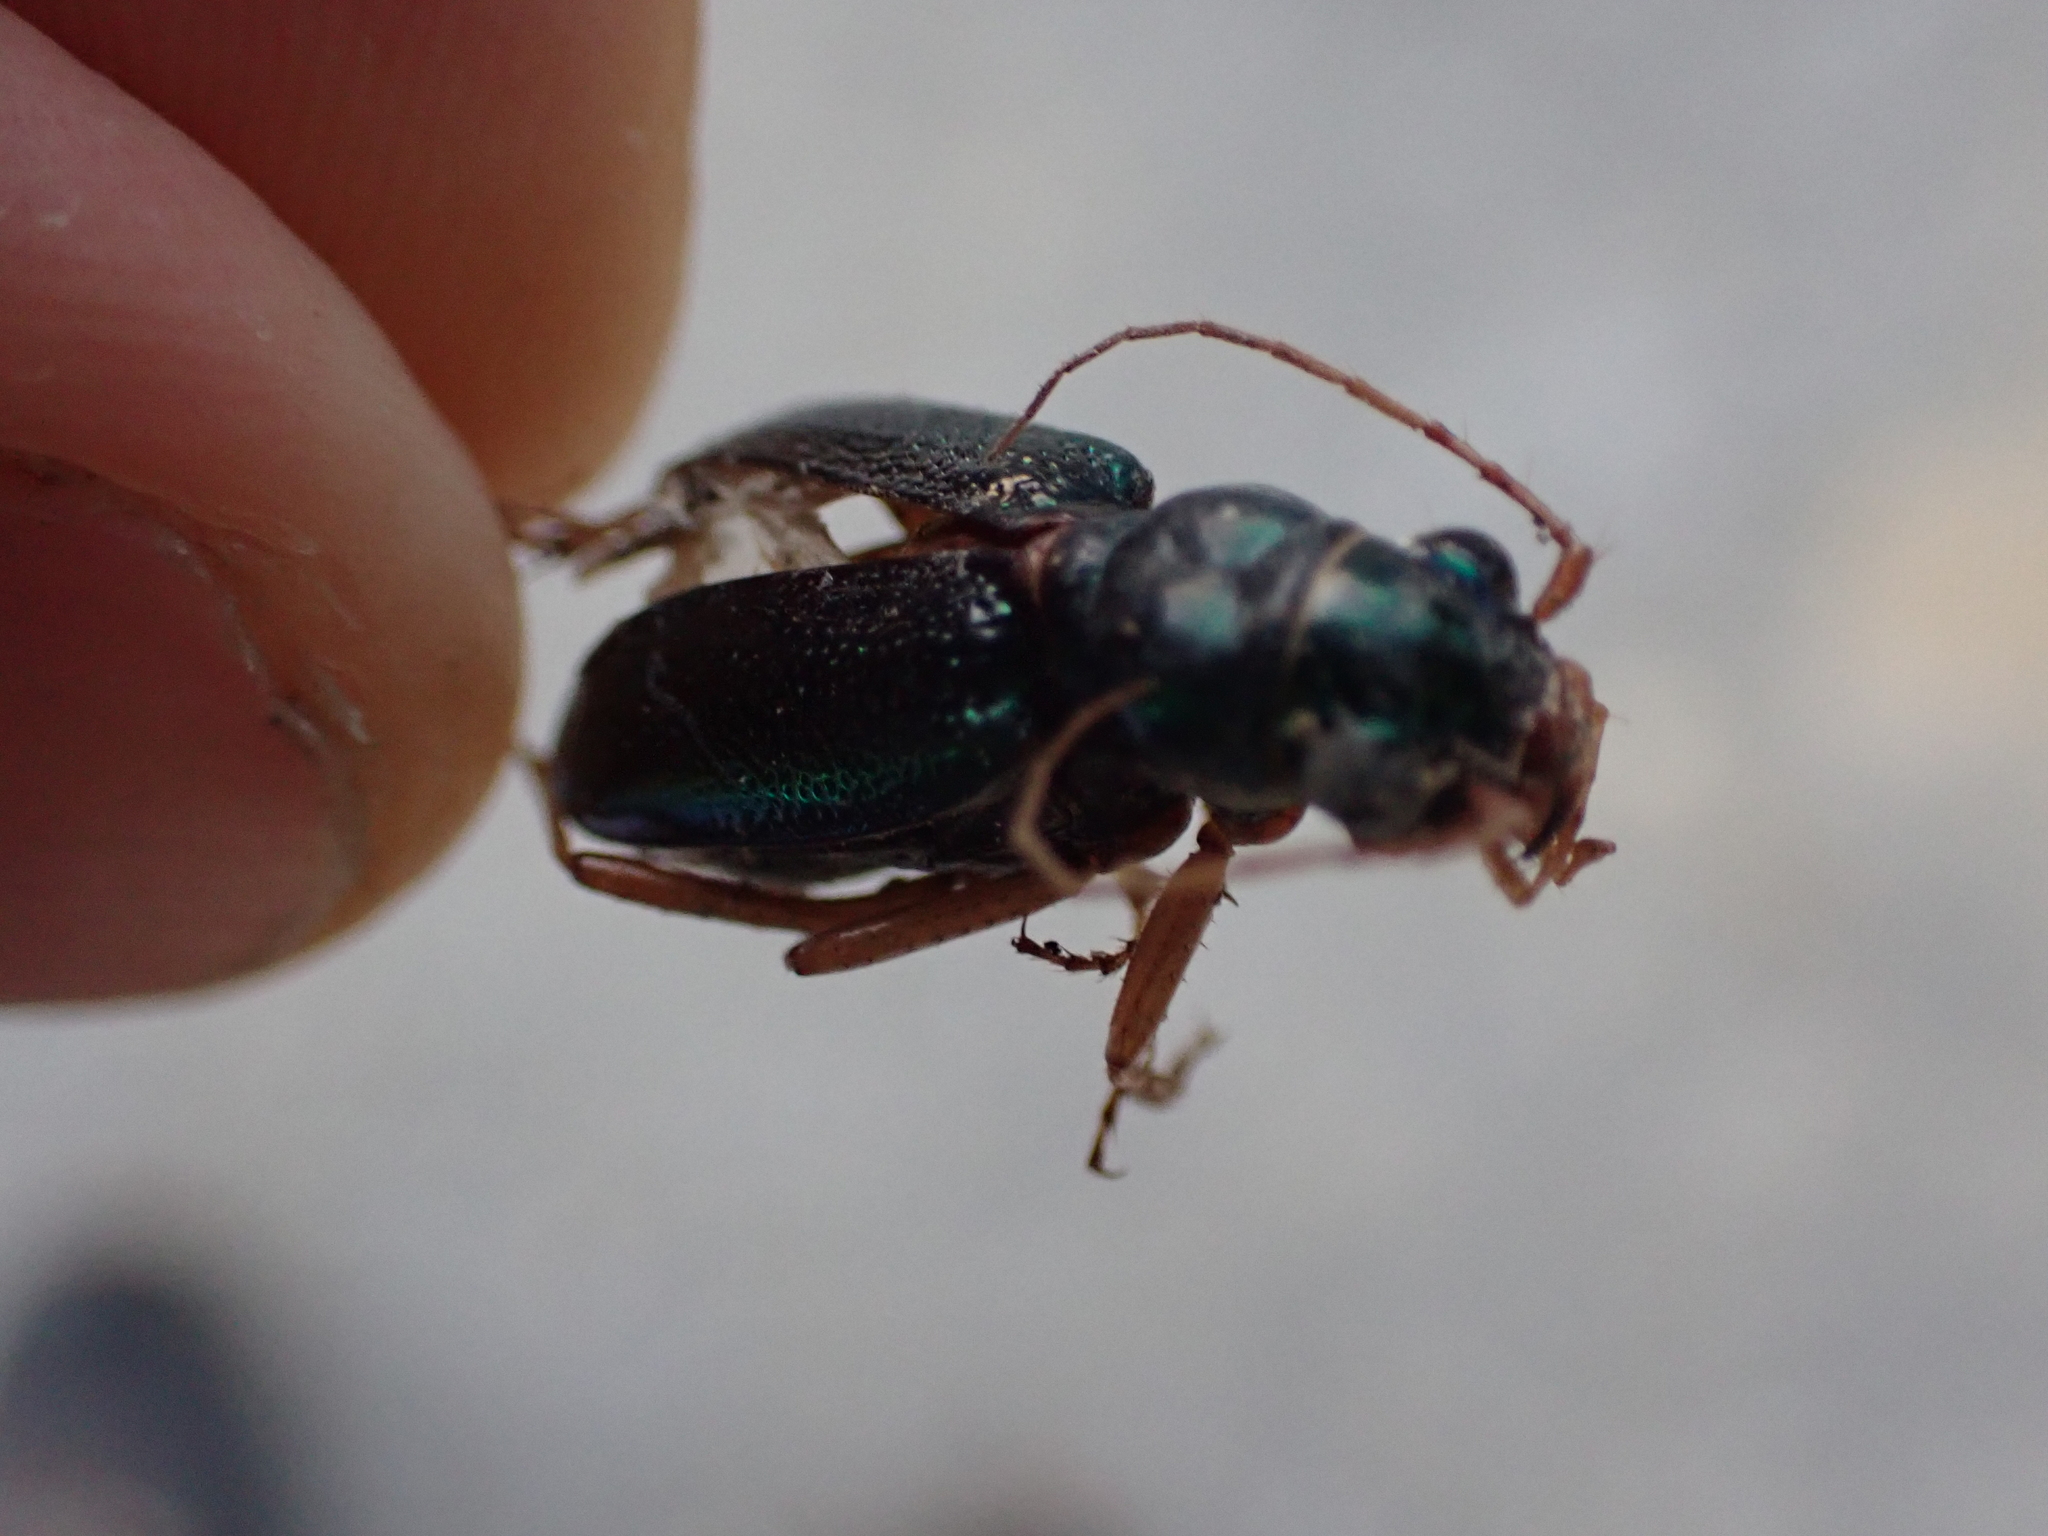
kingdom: Animalia
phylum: Arthropoda
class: Insecta
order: Coleoptera
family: Carabidae
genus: Tetracha
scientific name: Tetracha virginica
